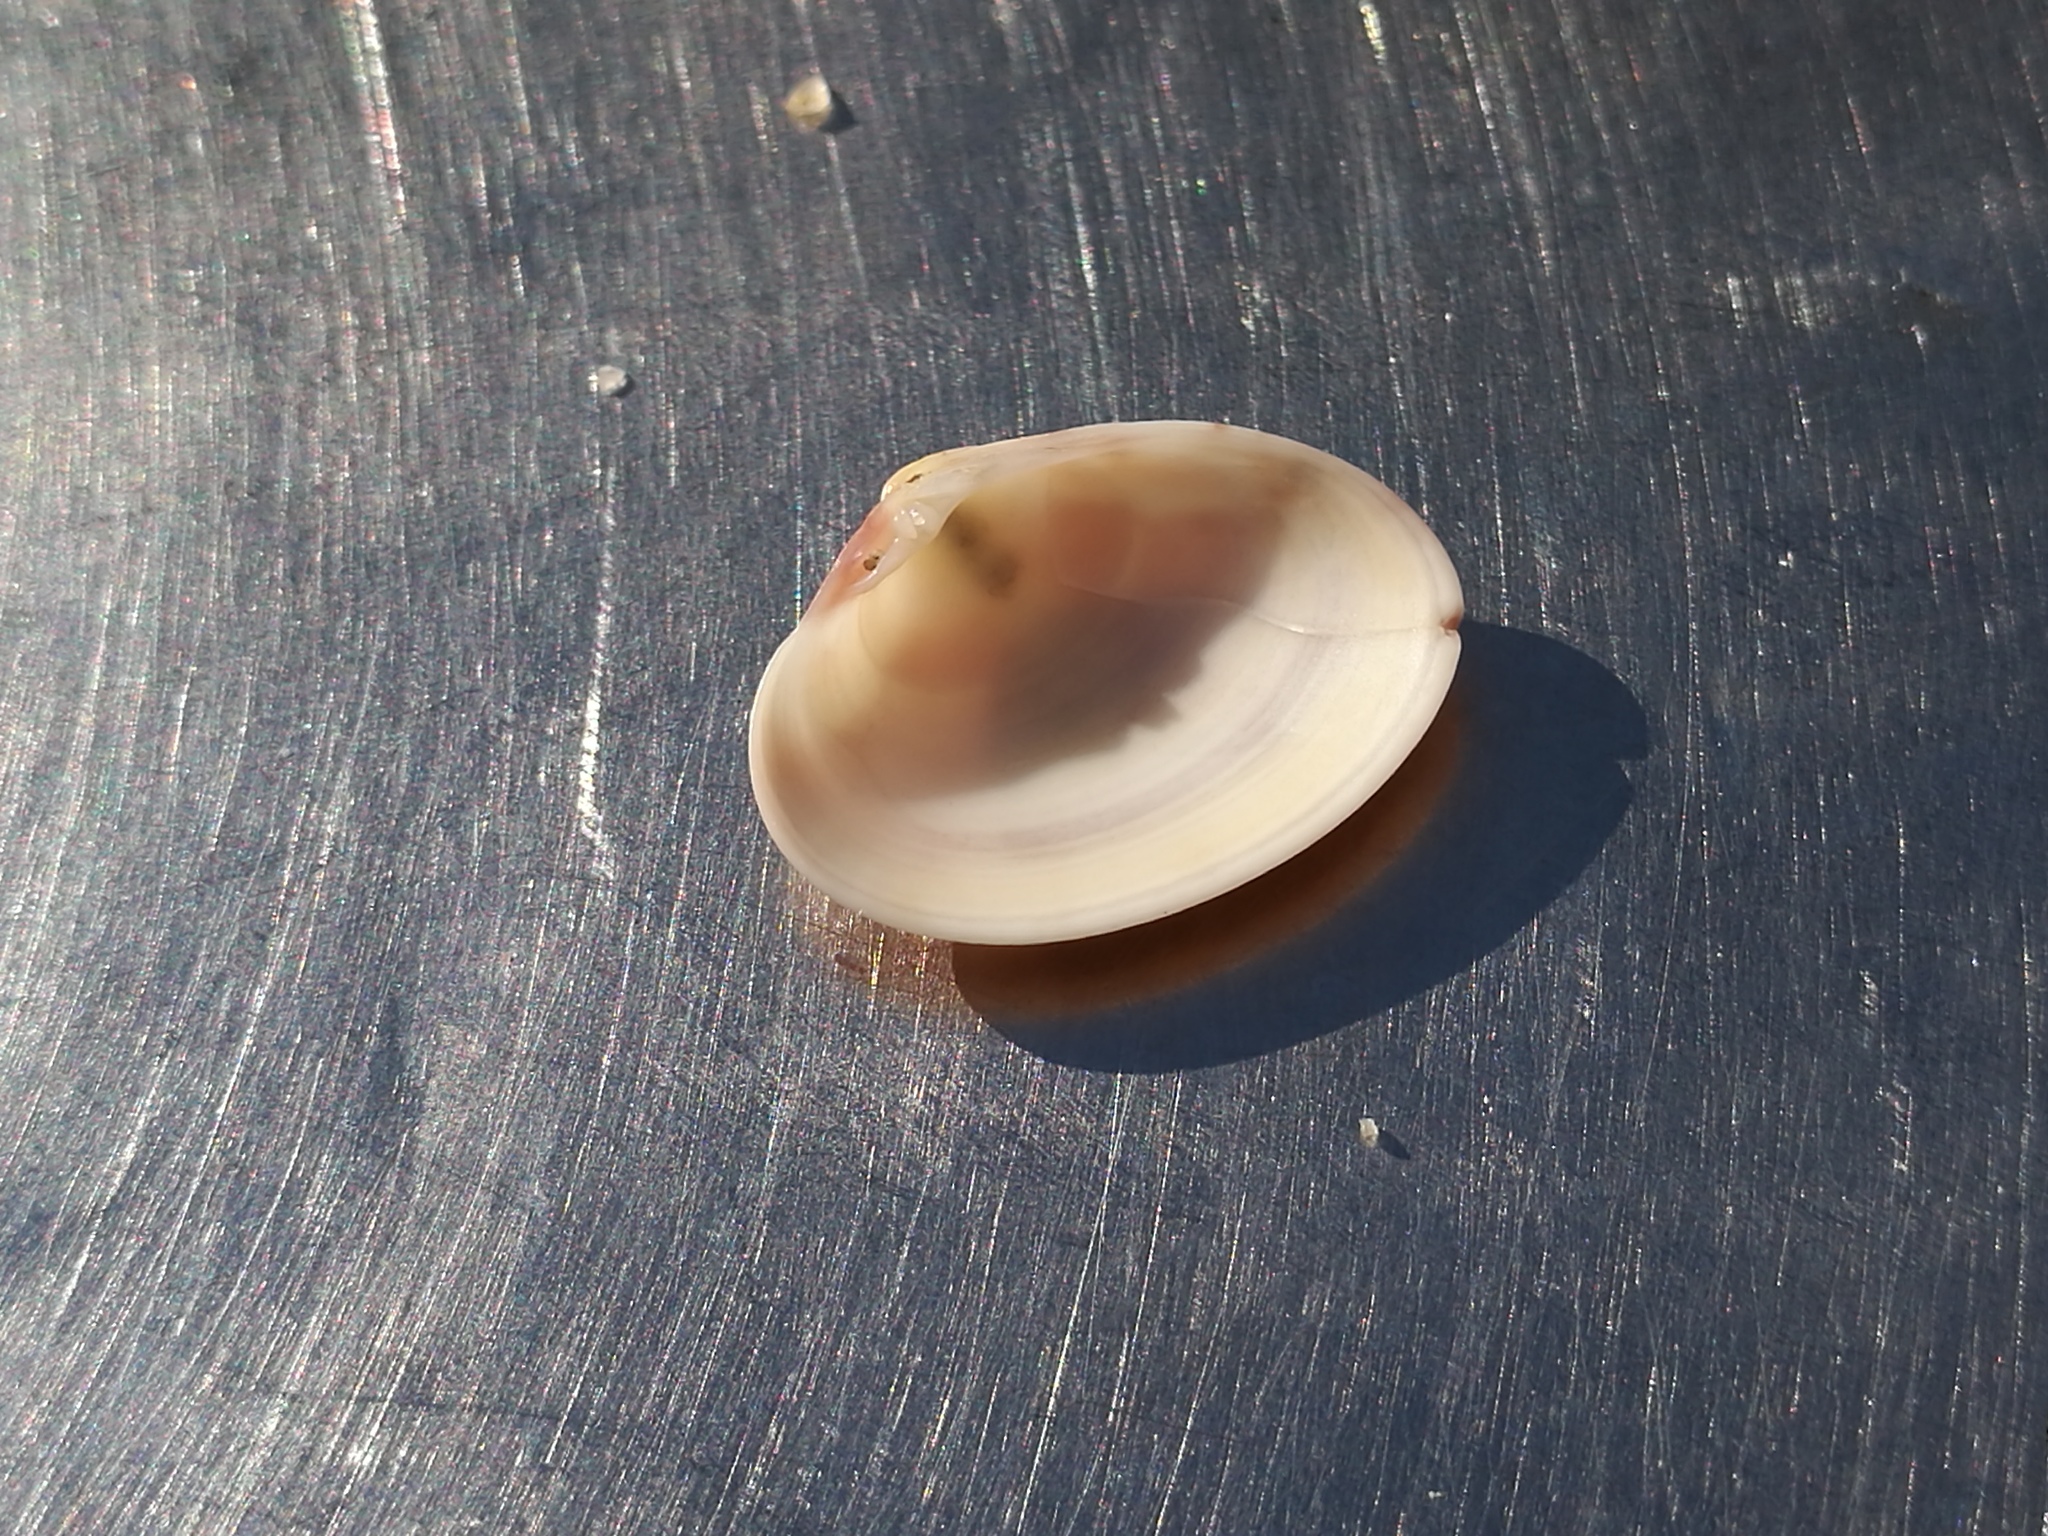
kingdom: Animalia
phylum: Mollusca
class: Bivalvia
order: Venerida
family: Veneridae
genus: Callista
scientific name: Callista chione
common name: Brown venus
